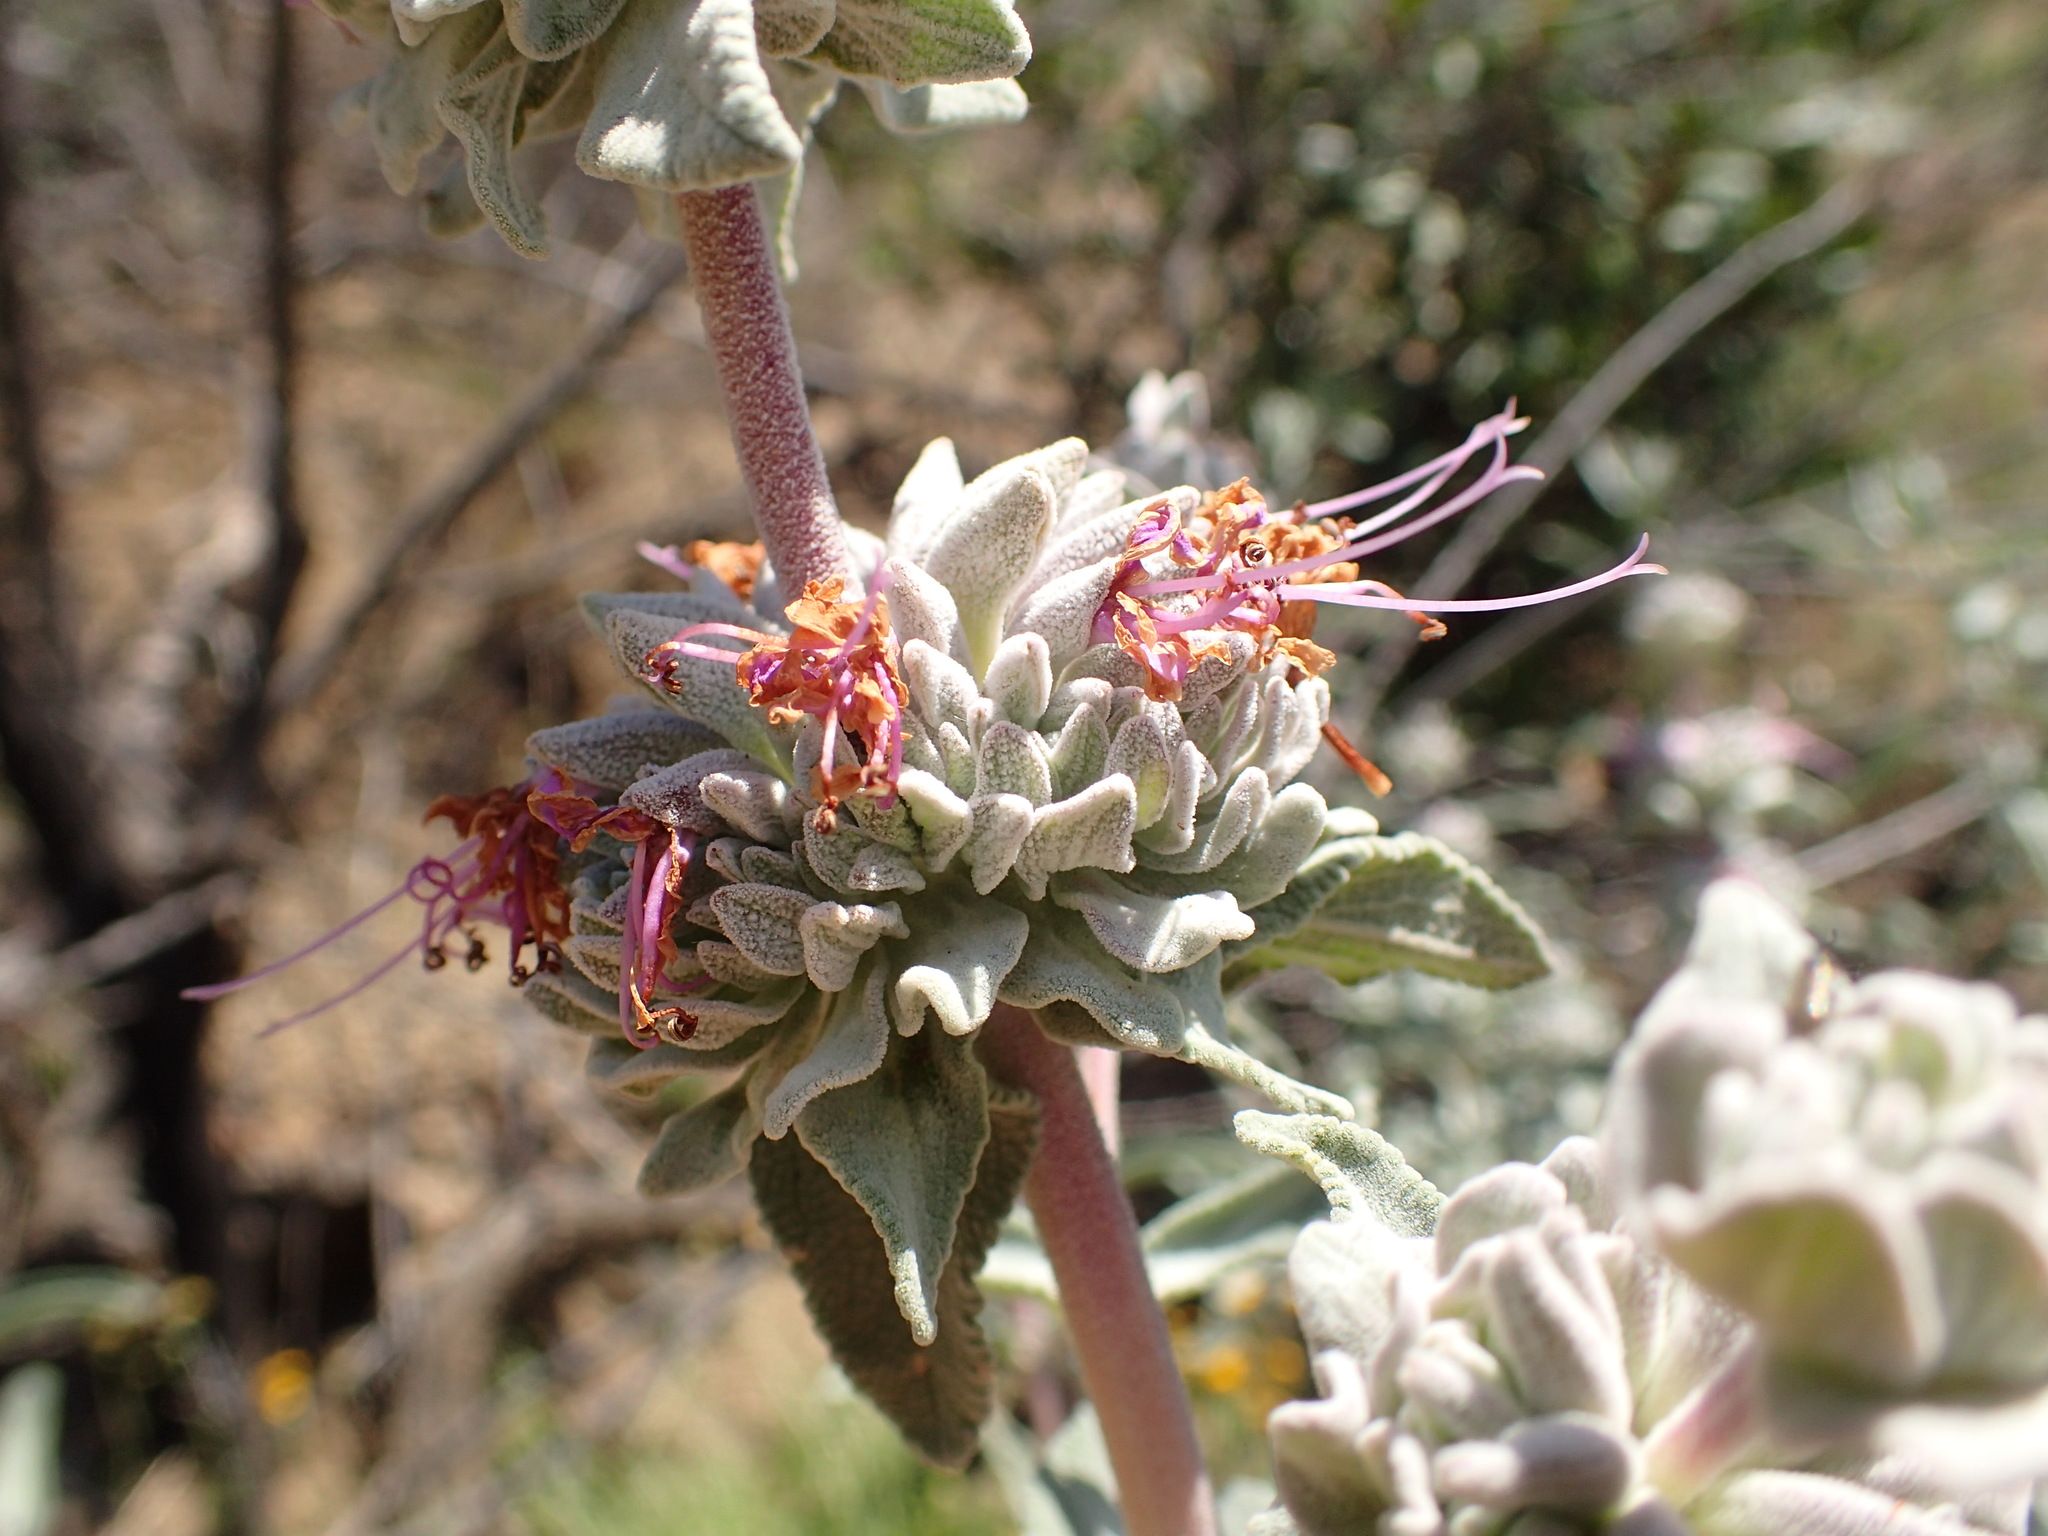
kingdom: Plantae
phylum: Tracheophyta
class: Magnoliopsida
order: Lamiales
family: Lamiaceae
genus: Salvia
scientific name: Salvia leucophylla
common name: Purple sage
